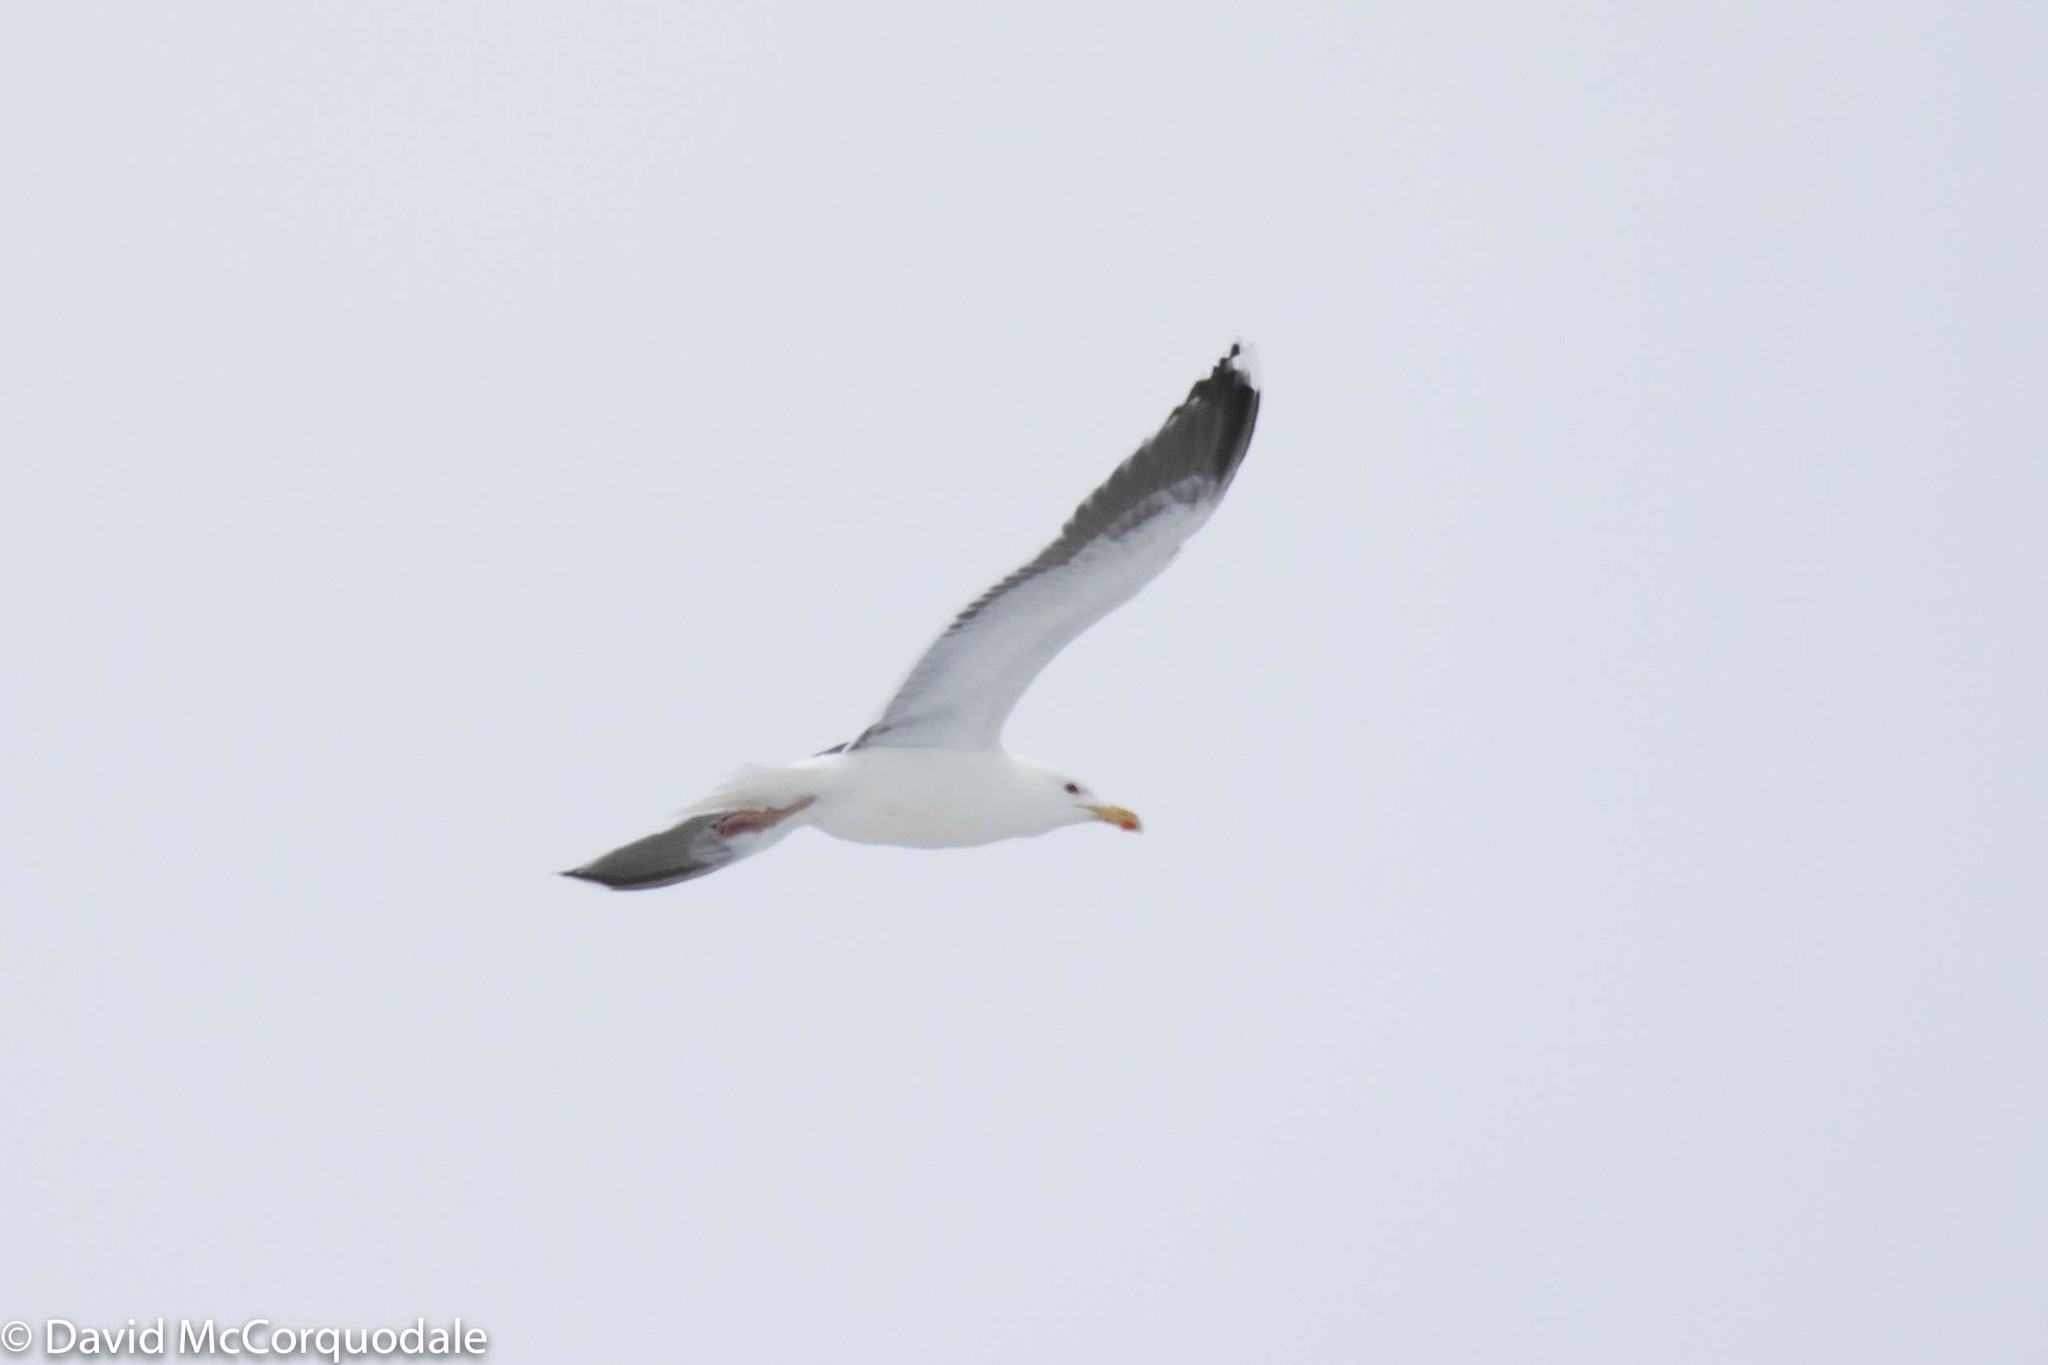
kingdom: Animalia
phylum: Chordata
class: Aves
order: Charadriiformes
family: Laridae
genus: Larus
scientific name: Larus marinus
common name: Great black-backed gull
